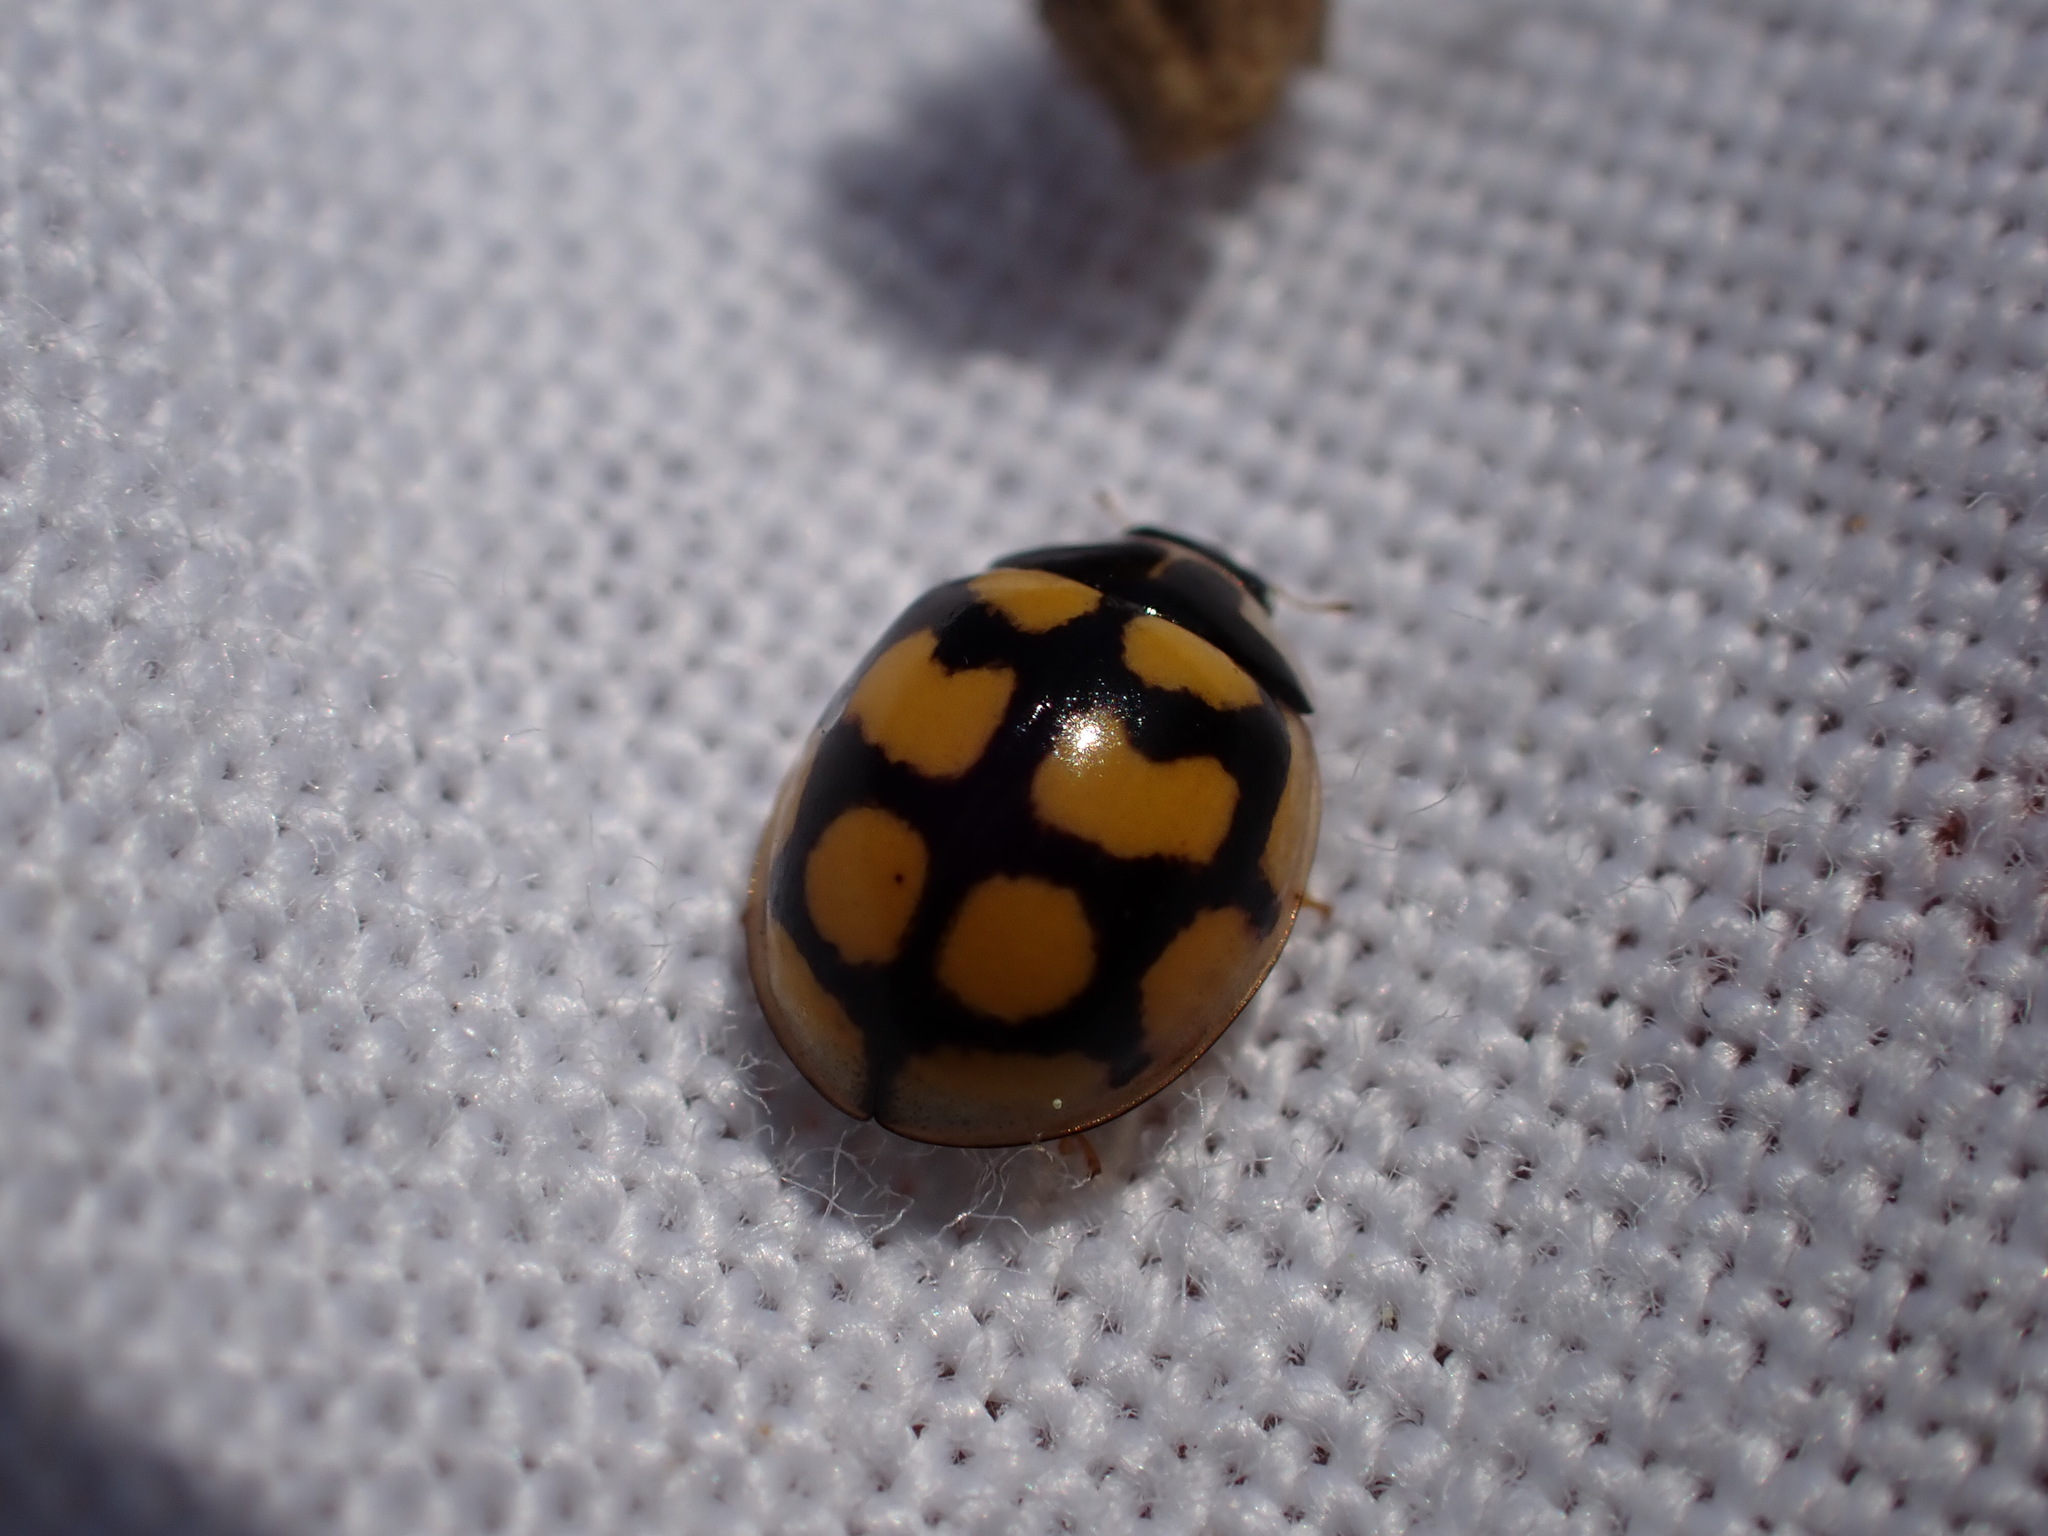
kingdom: Animalia
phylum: Arthropoda
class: Insecta
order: Coleoptera
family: Coccinellidae
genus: Oenopia
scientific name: Oenopia lyncea
